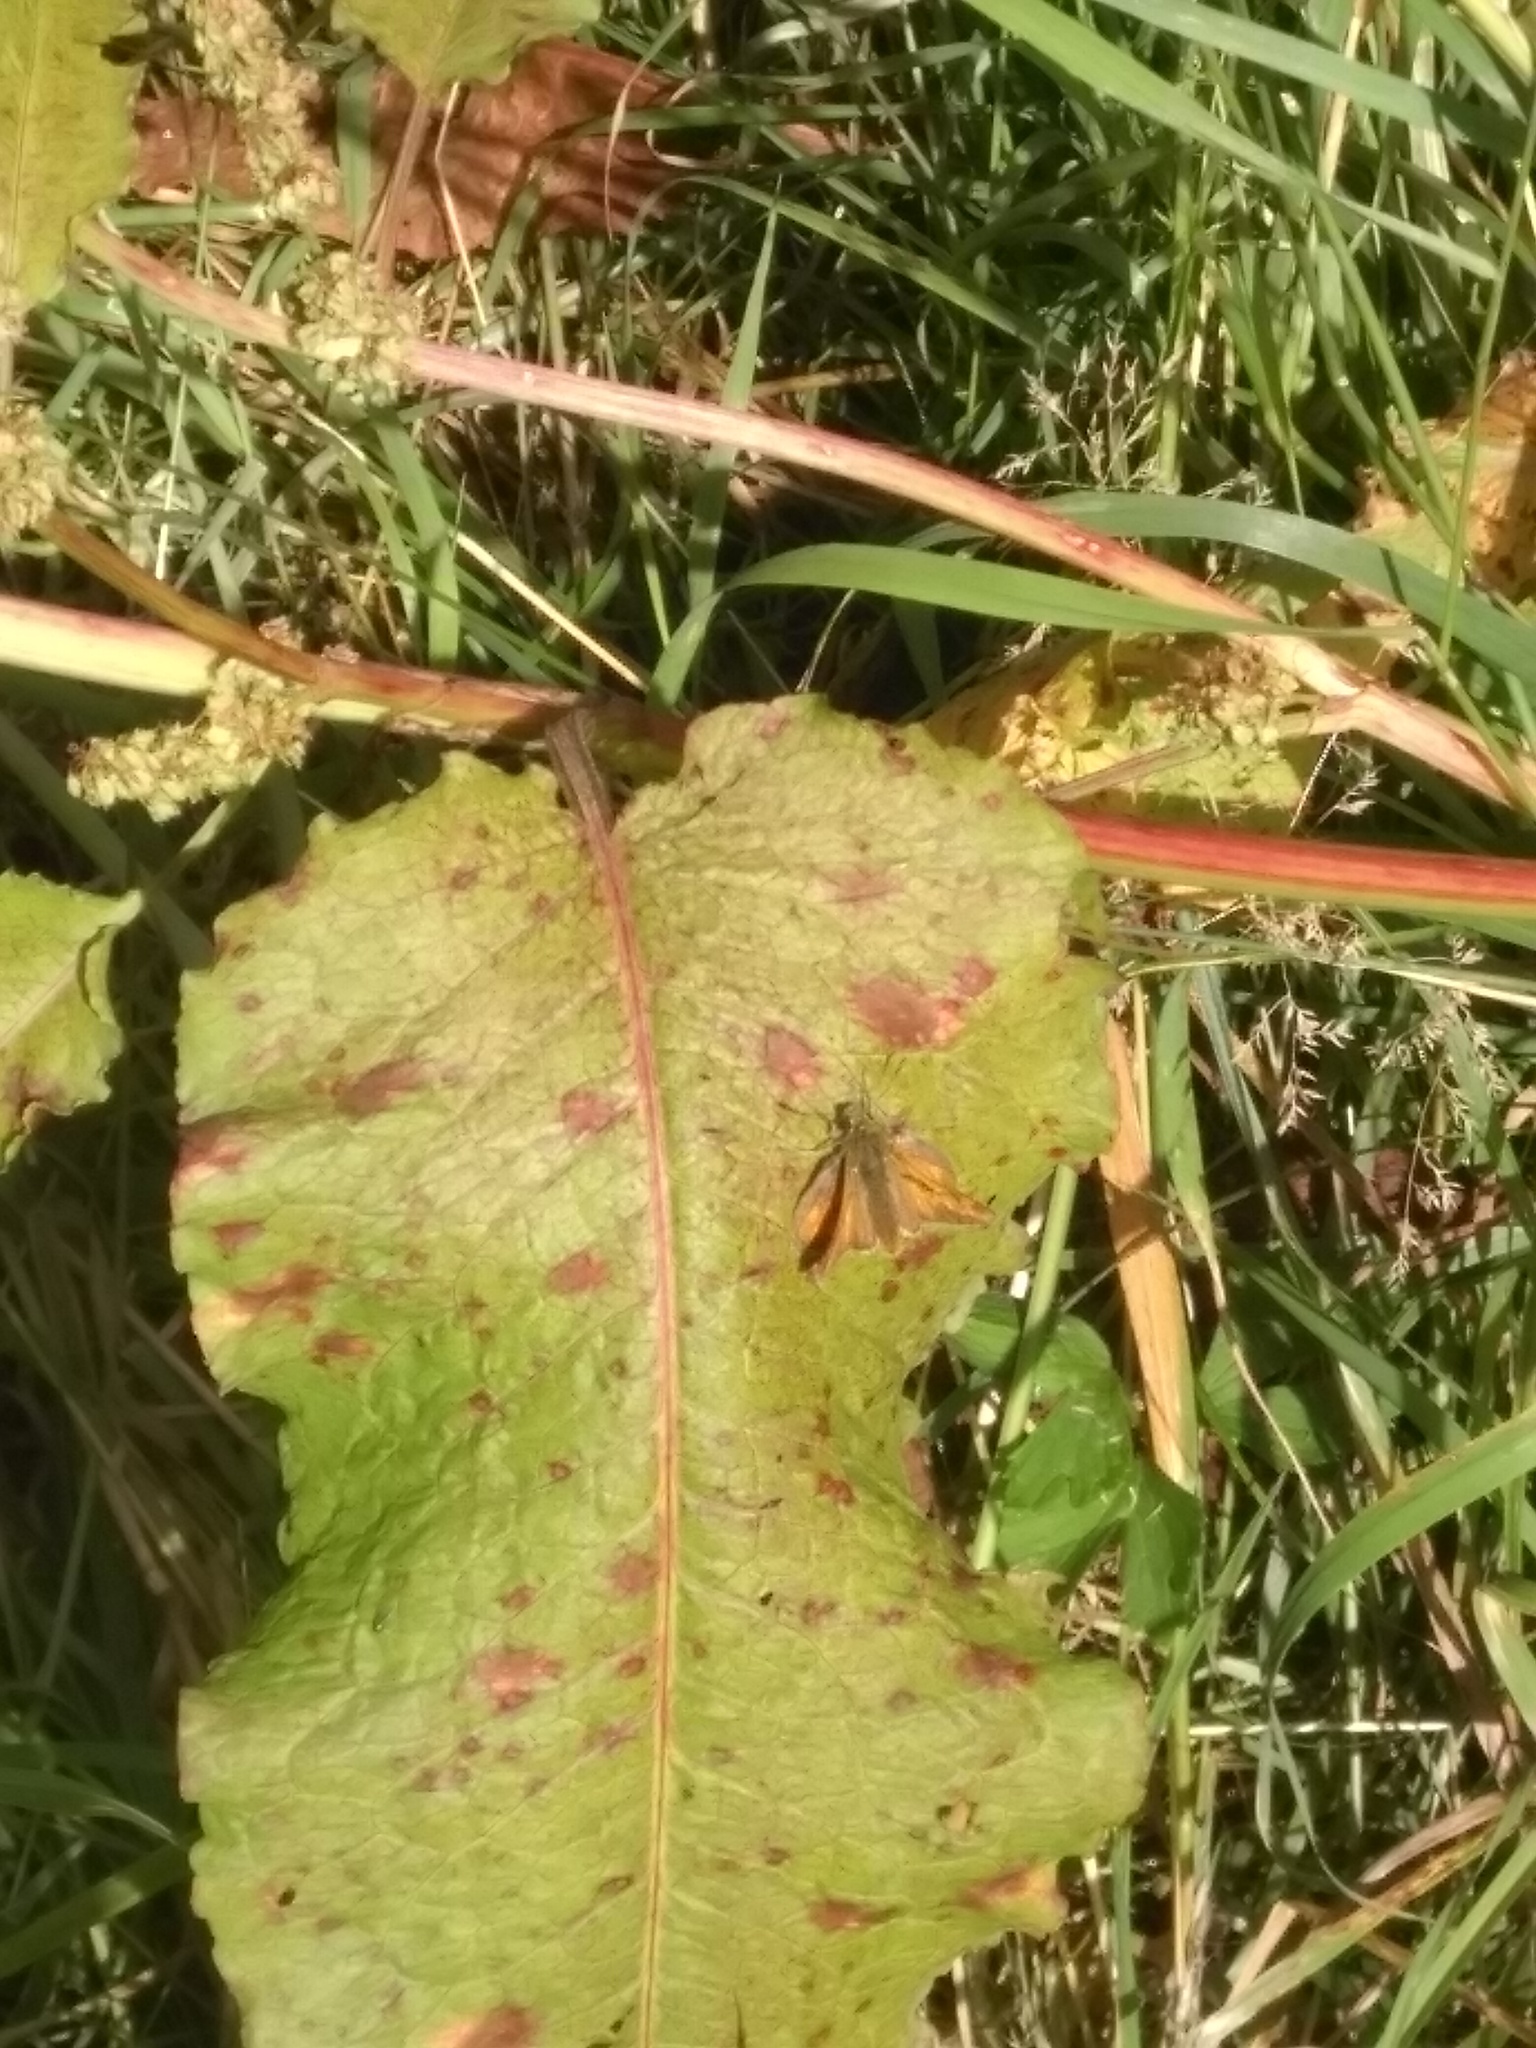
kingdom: Animalia
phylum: Arthropoda
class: Insecta
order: Lepidoptera
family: Hesperiidae
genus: Ochlodes
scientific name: Ochlodes venata
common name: Large skipper
